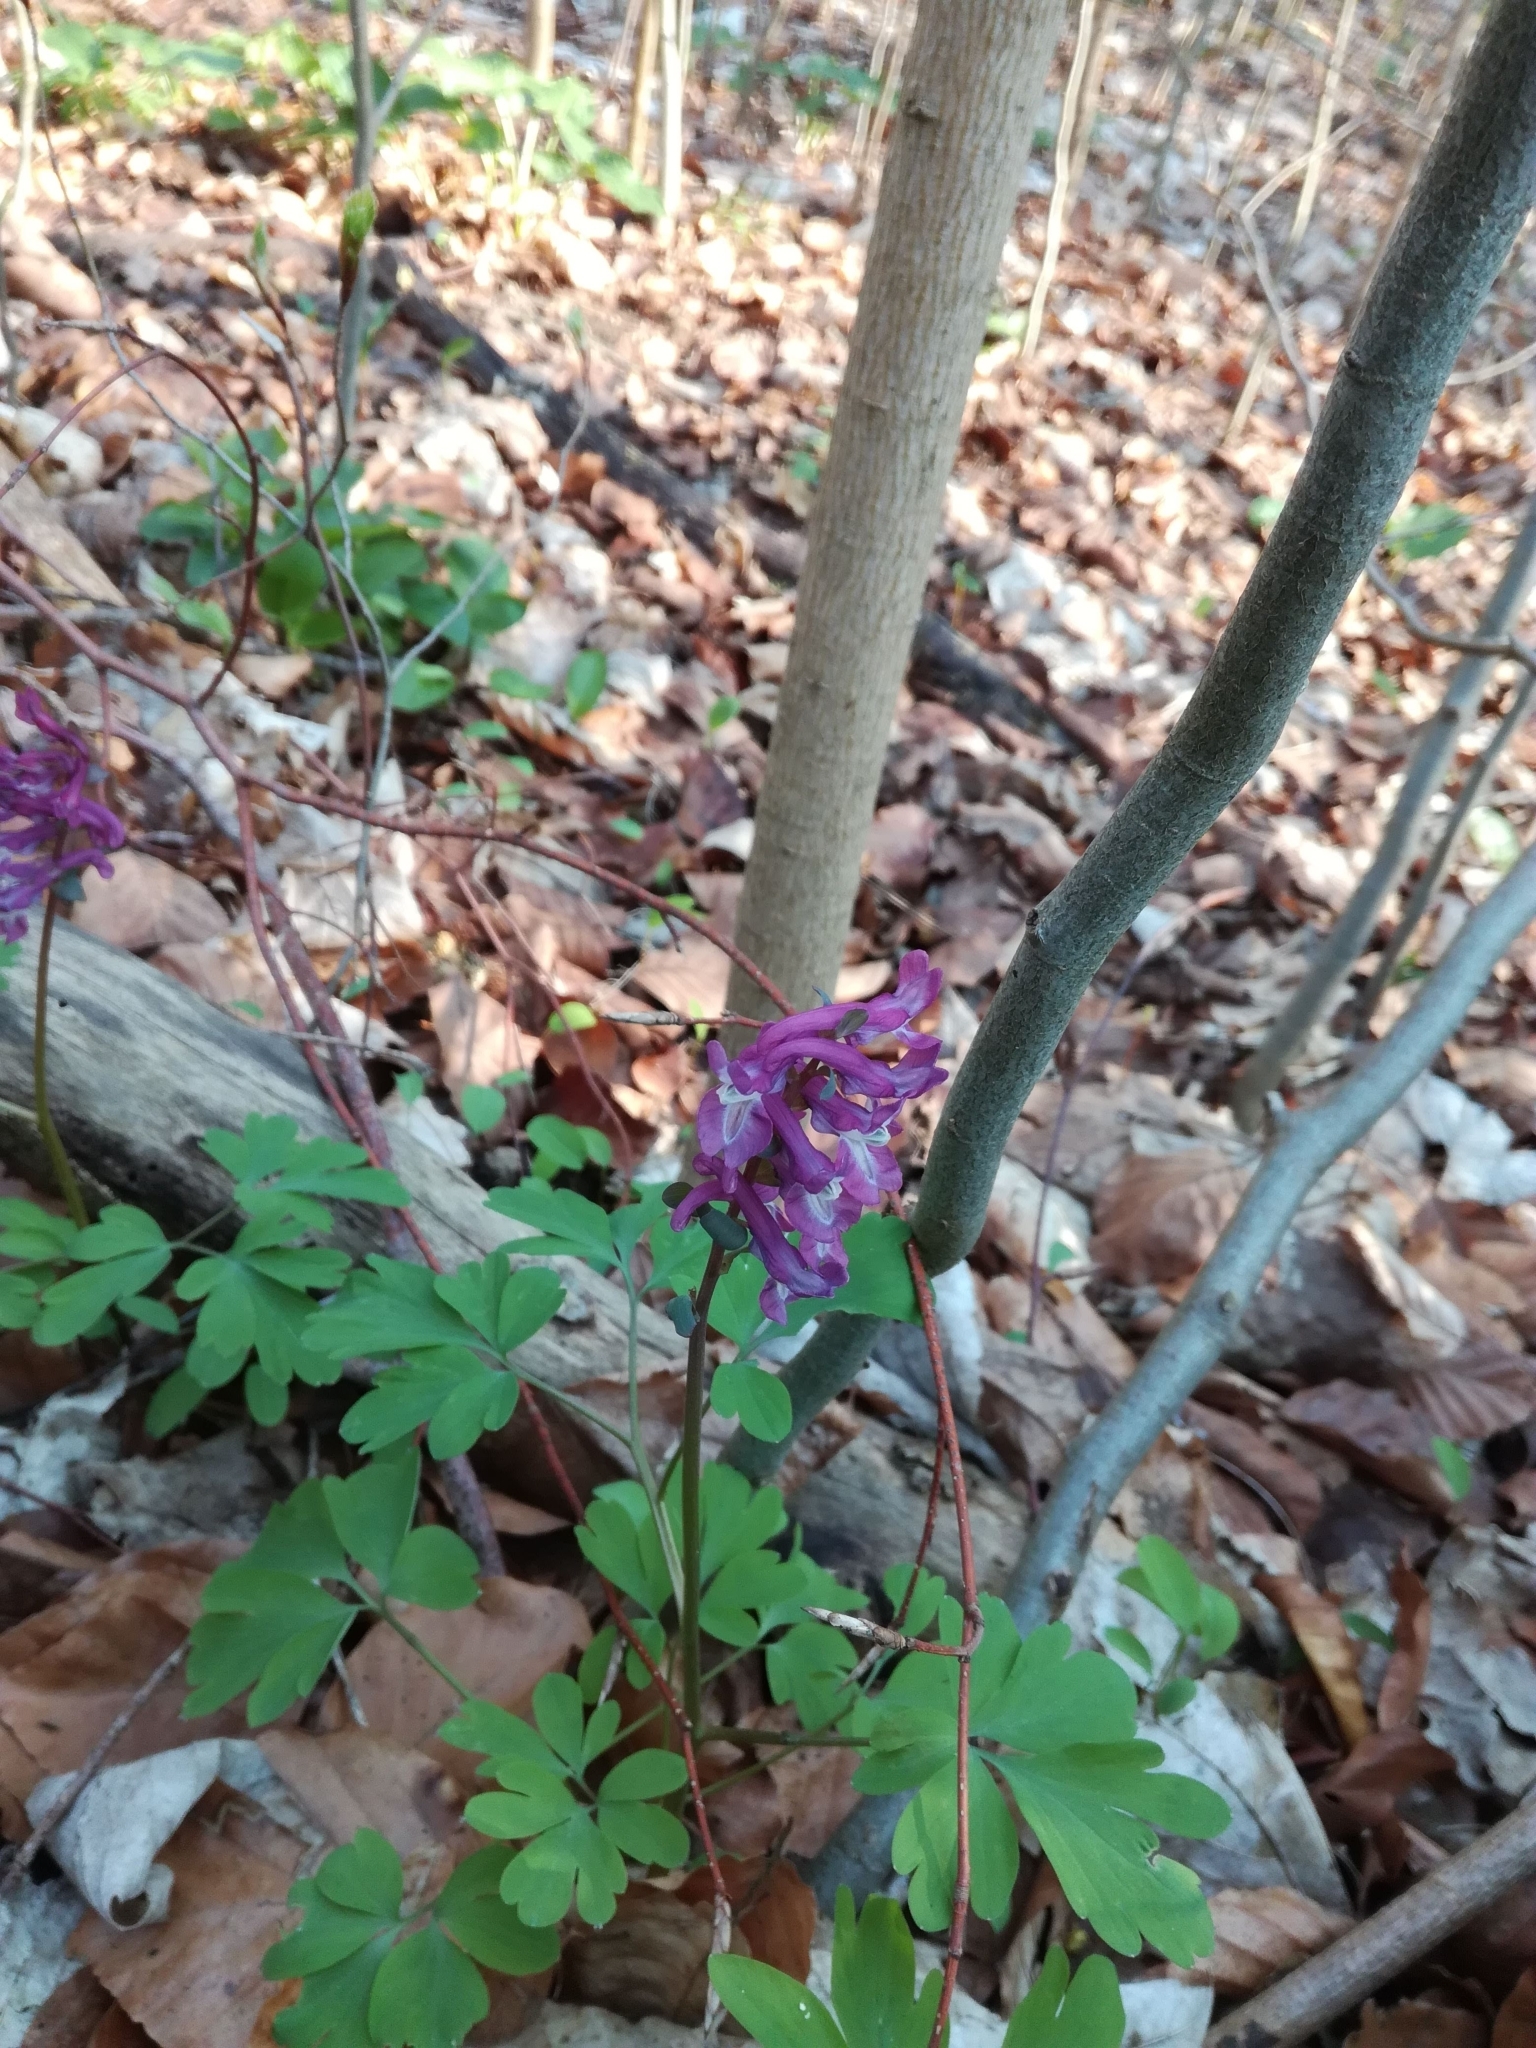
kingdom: Plantae
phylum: Tracheophyta
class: Magnoliopsida
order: Ranunculales
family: Papaveraceae
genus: Corydalis
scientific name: Corydalis cava
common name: Hollowroot
